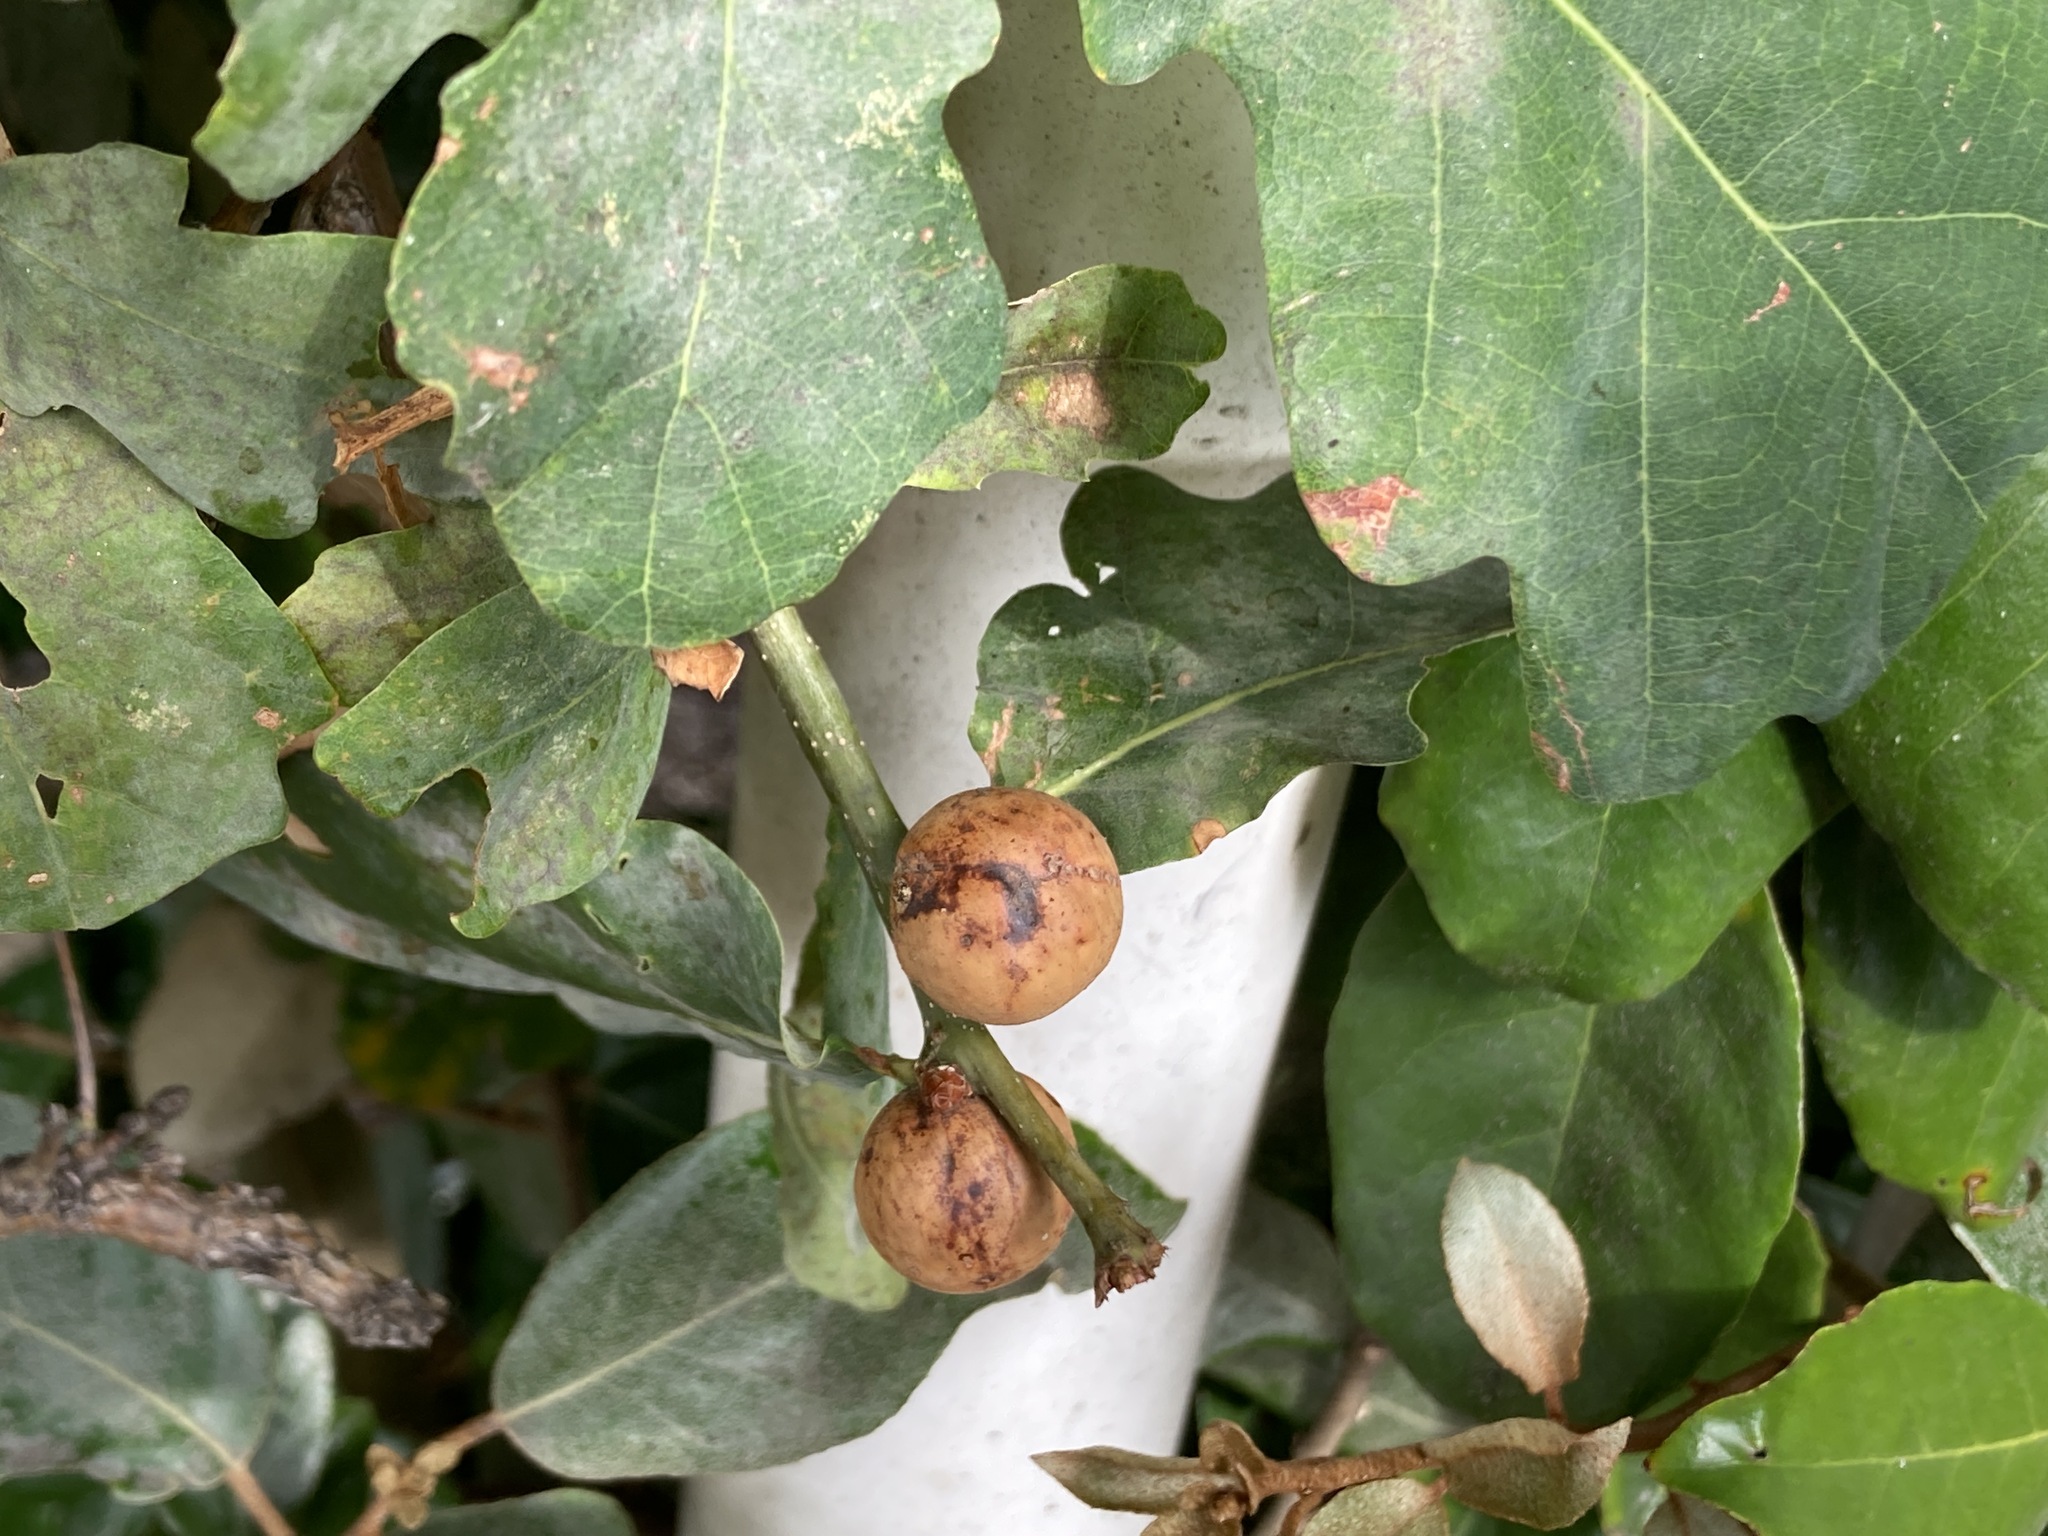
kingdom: Animalia
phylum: Arthropoda
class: Insecta
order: Hymenoptera
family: Cynipidae
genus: Andricus
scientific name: Andricus kollari
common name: Marble gall
